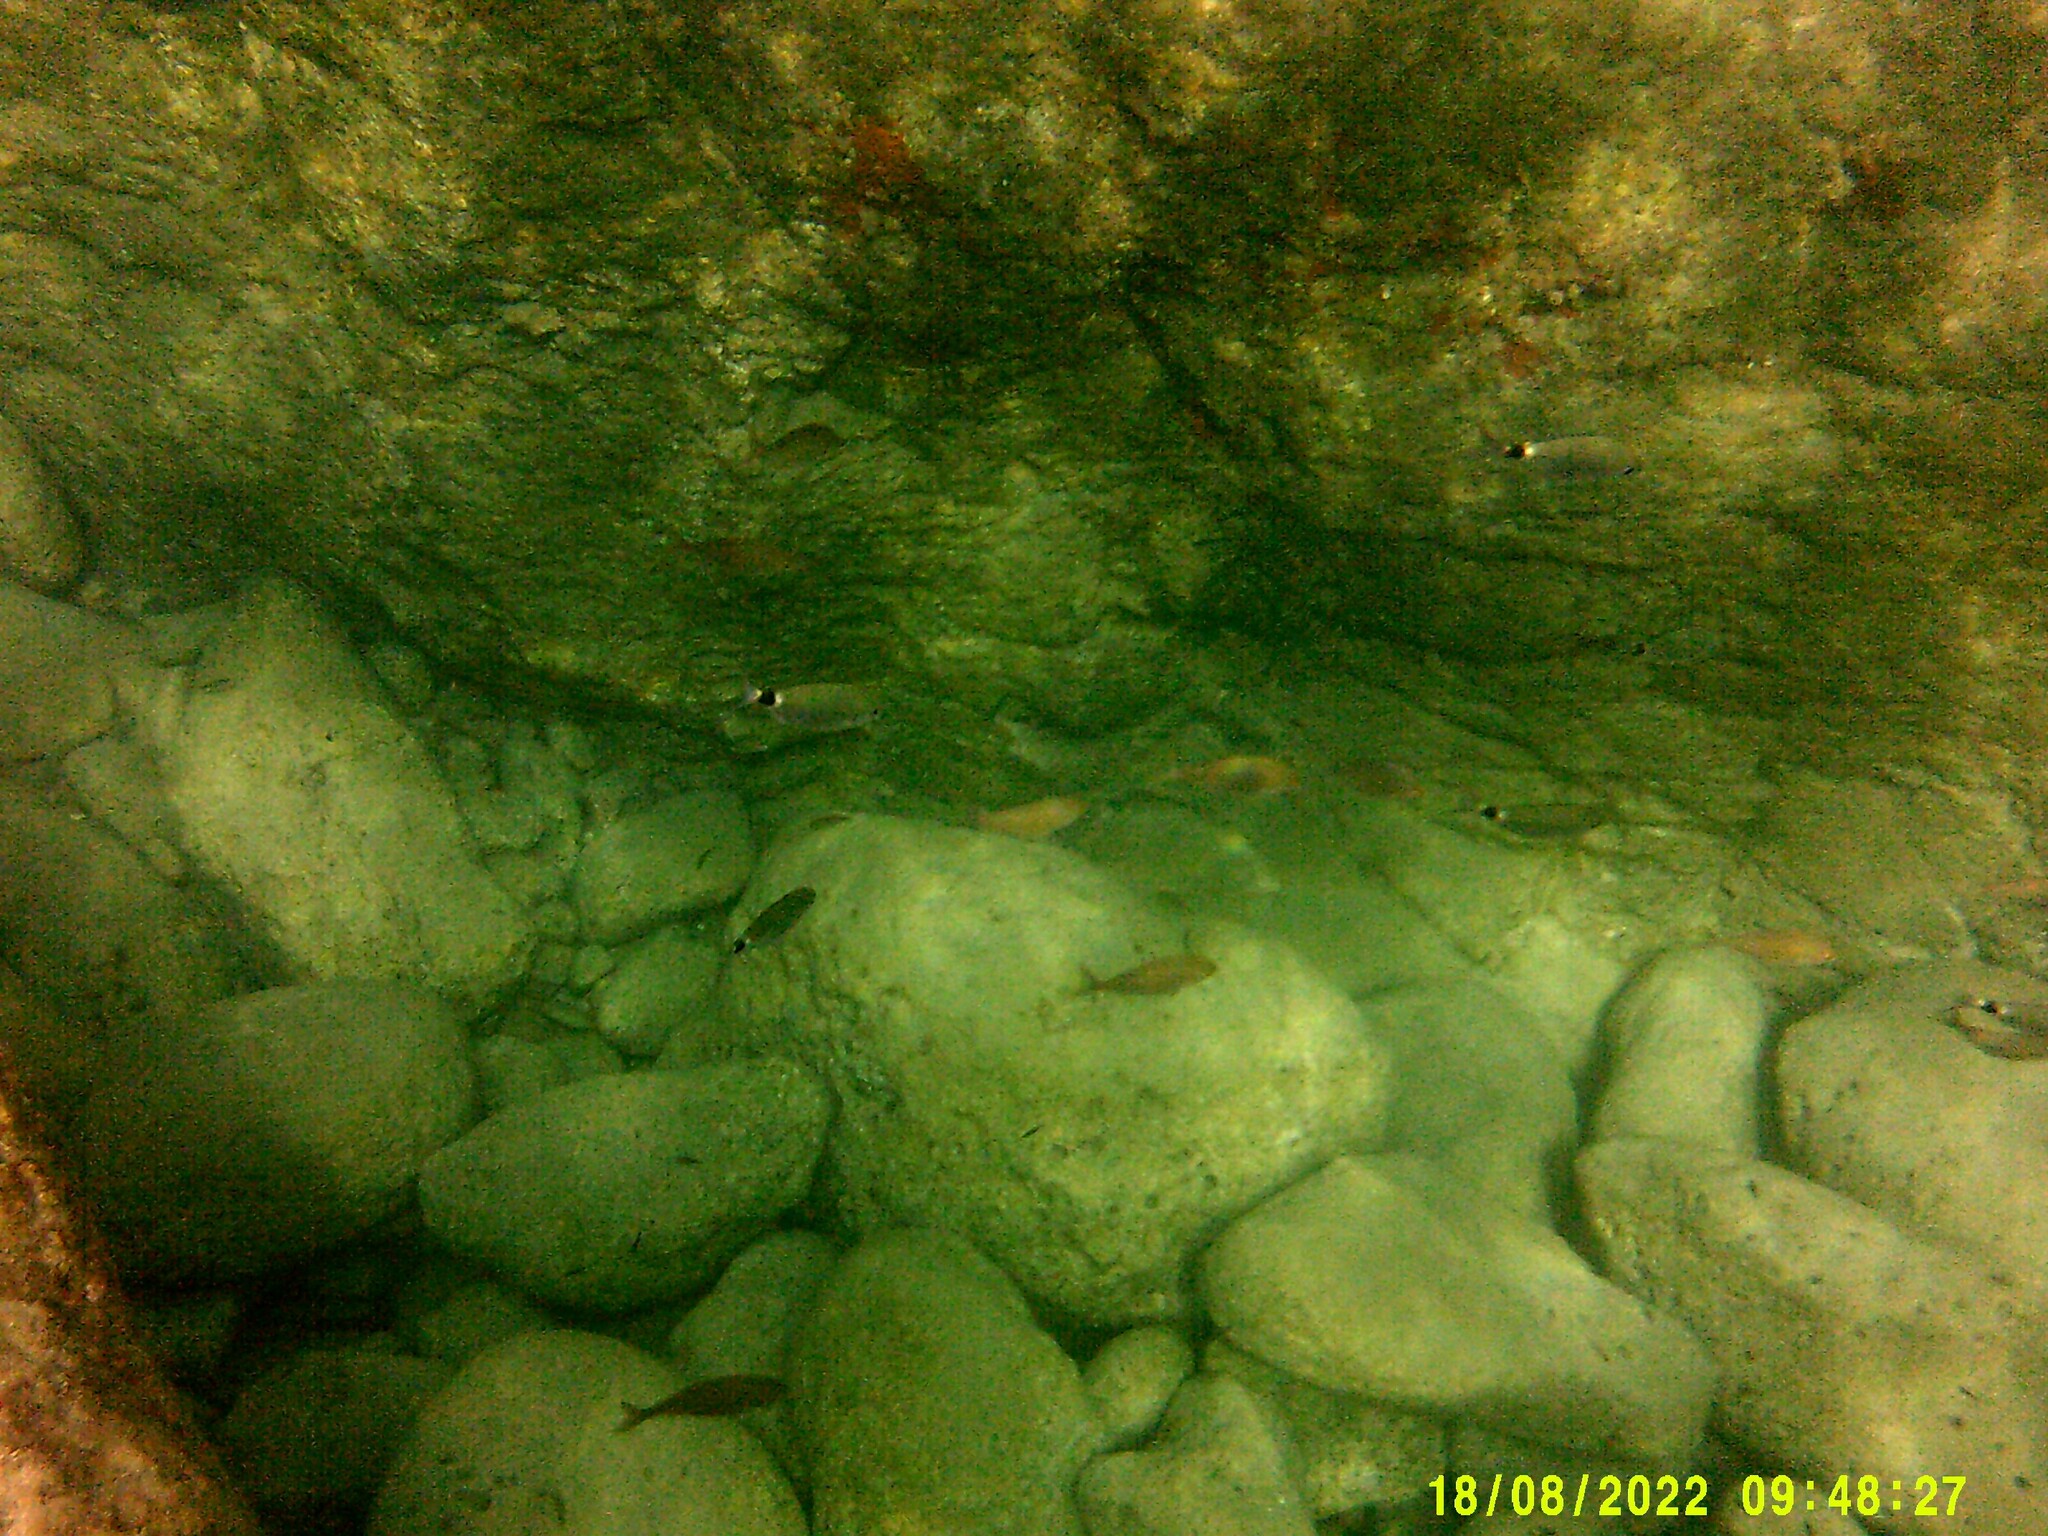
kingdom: Animalia
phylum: Chordata
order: Perciformes
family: Sparidae
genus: Oblada
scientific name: Oblada melanura
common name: Saddled seabream
